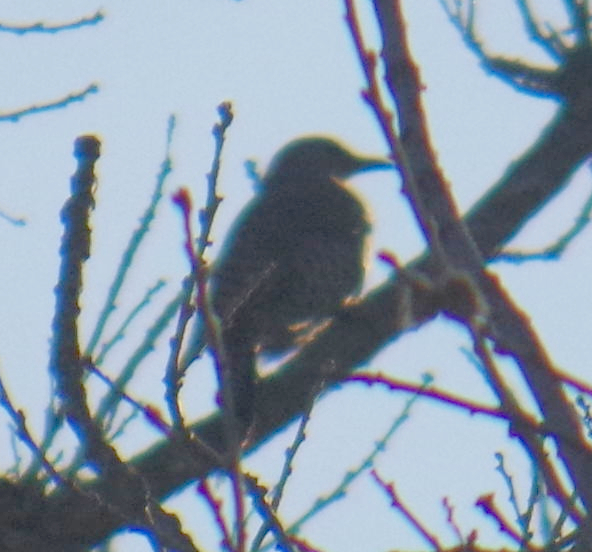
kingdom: Animalia
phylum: Chordata
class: Aves
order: Piciformes
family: Picidae
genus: Colaptes
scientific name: Colaptes auratus
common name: Northern flicker
